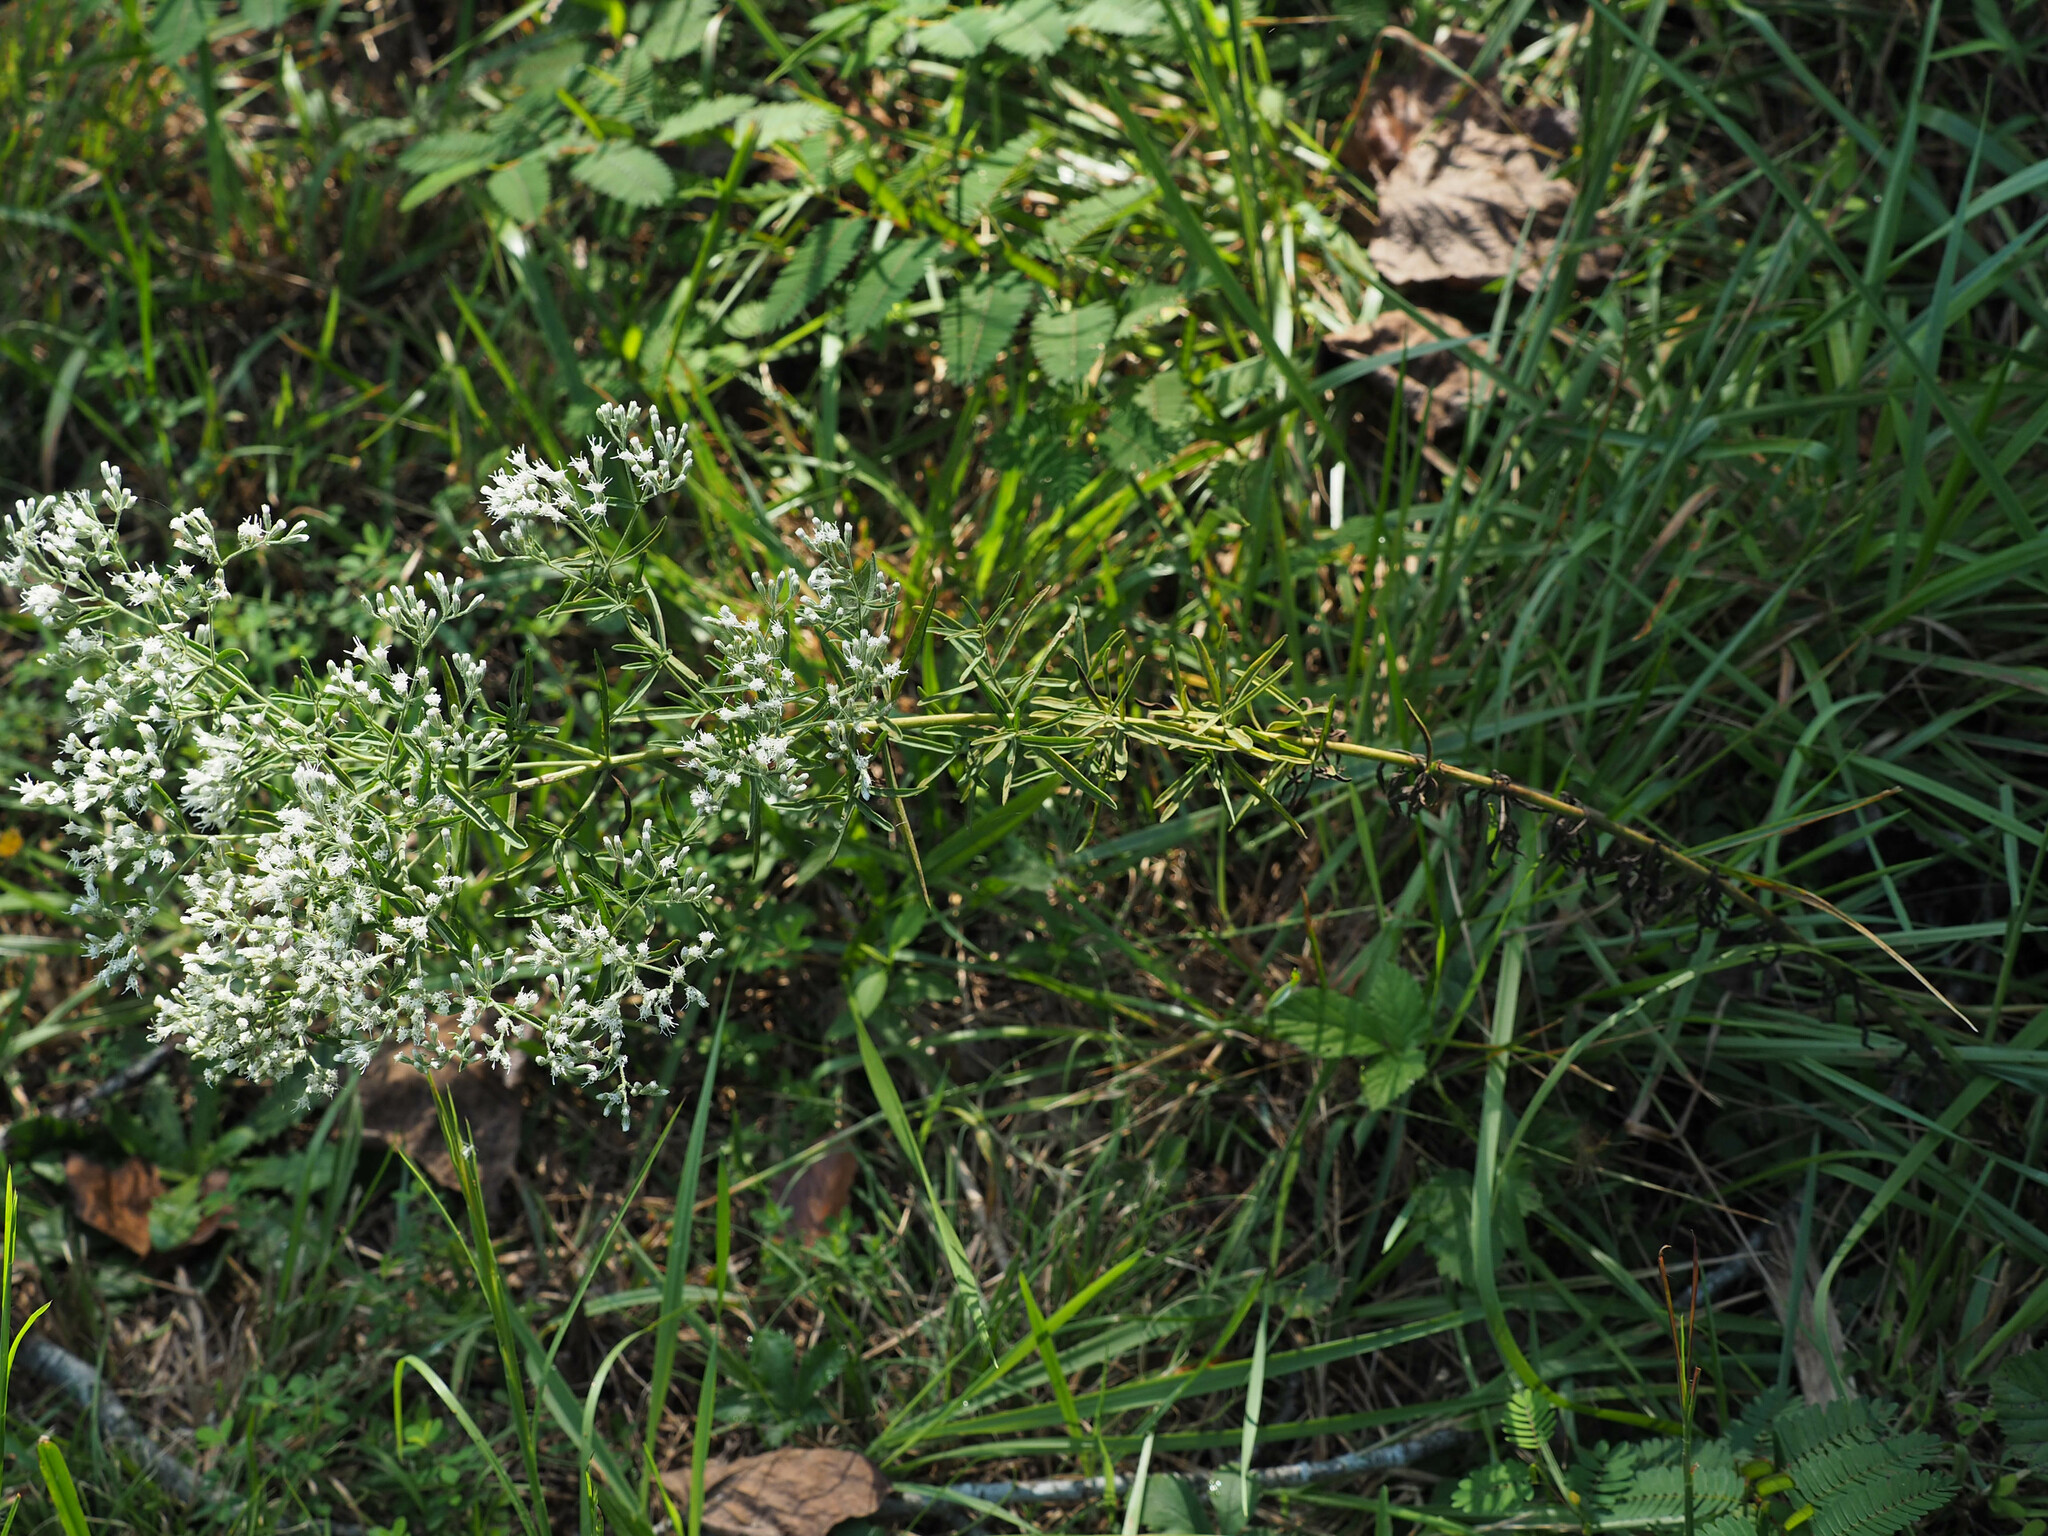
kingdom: Plantae
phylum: Tracheophyta
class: Magnoliopsida
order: Asterales
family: Asteraceae
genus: Eupatorium
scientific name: Eupatorium hyssopifolium
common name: Hyssop-leaf thoroughwort
